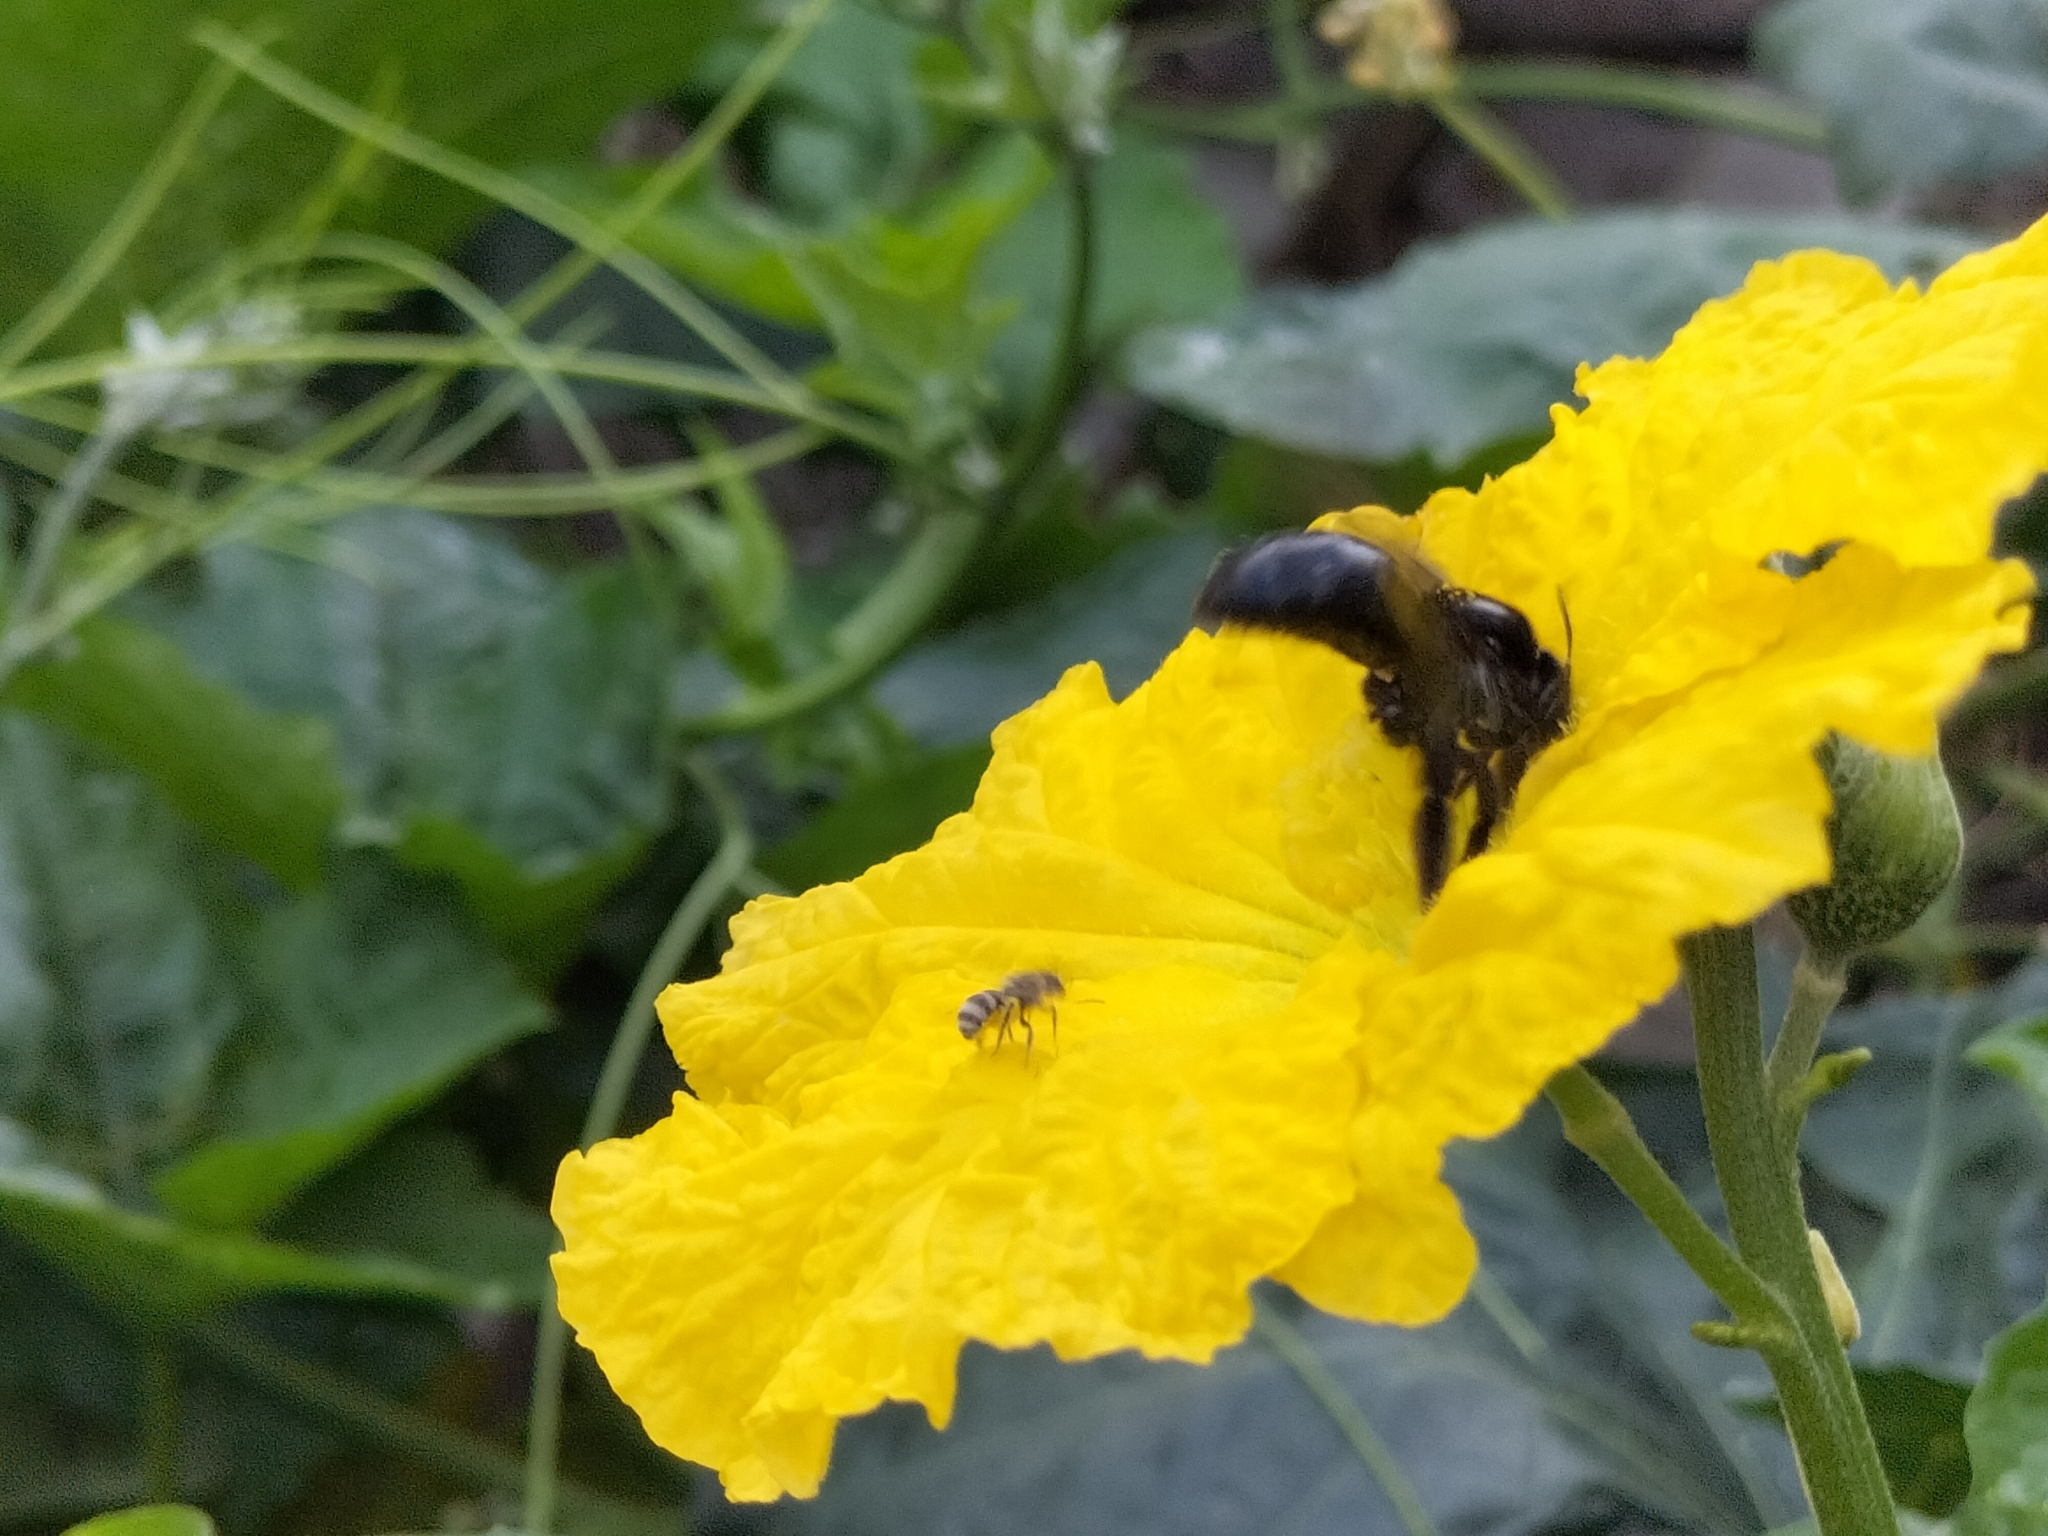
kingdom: Animalia
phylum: Arthropoda
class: Insecta
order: Hymenoptera
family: Apidae
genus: Xylocopa
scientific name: Xylocopa tranquebarorum
